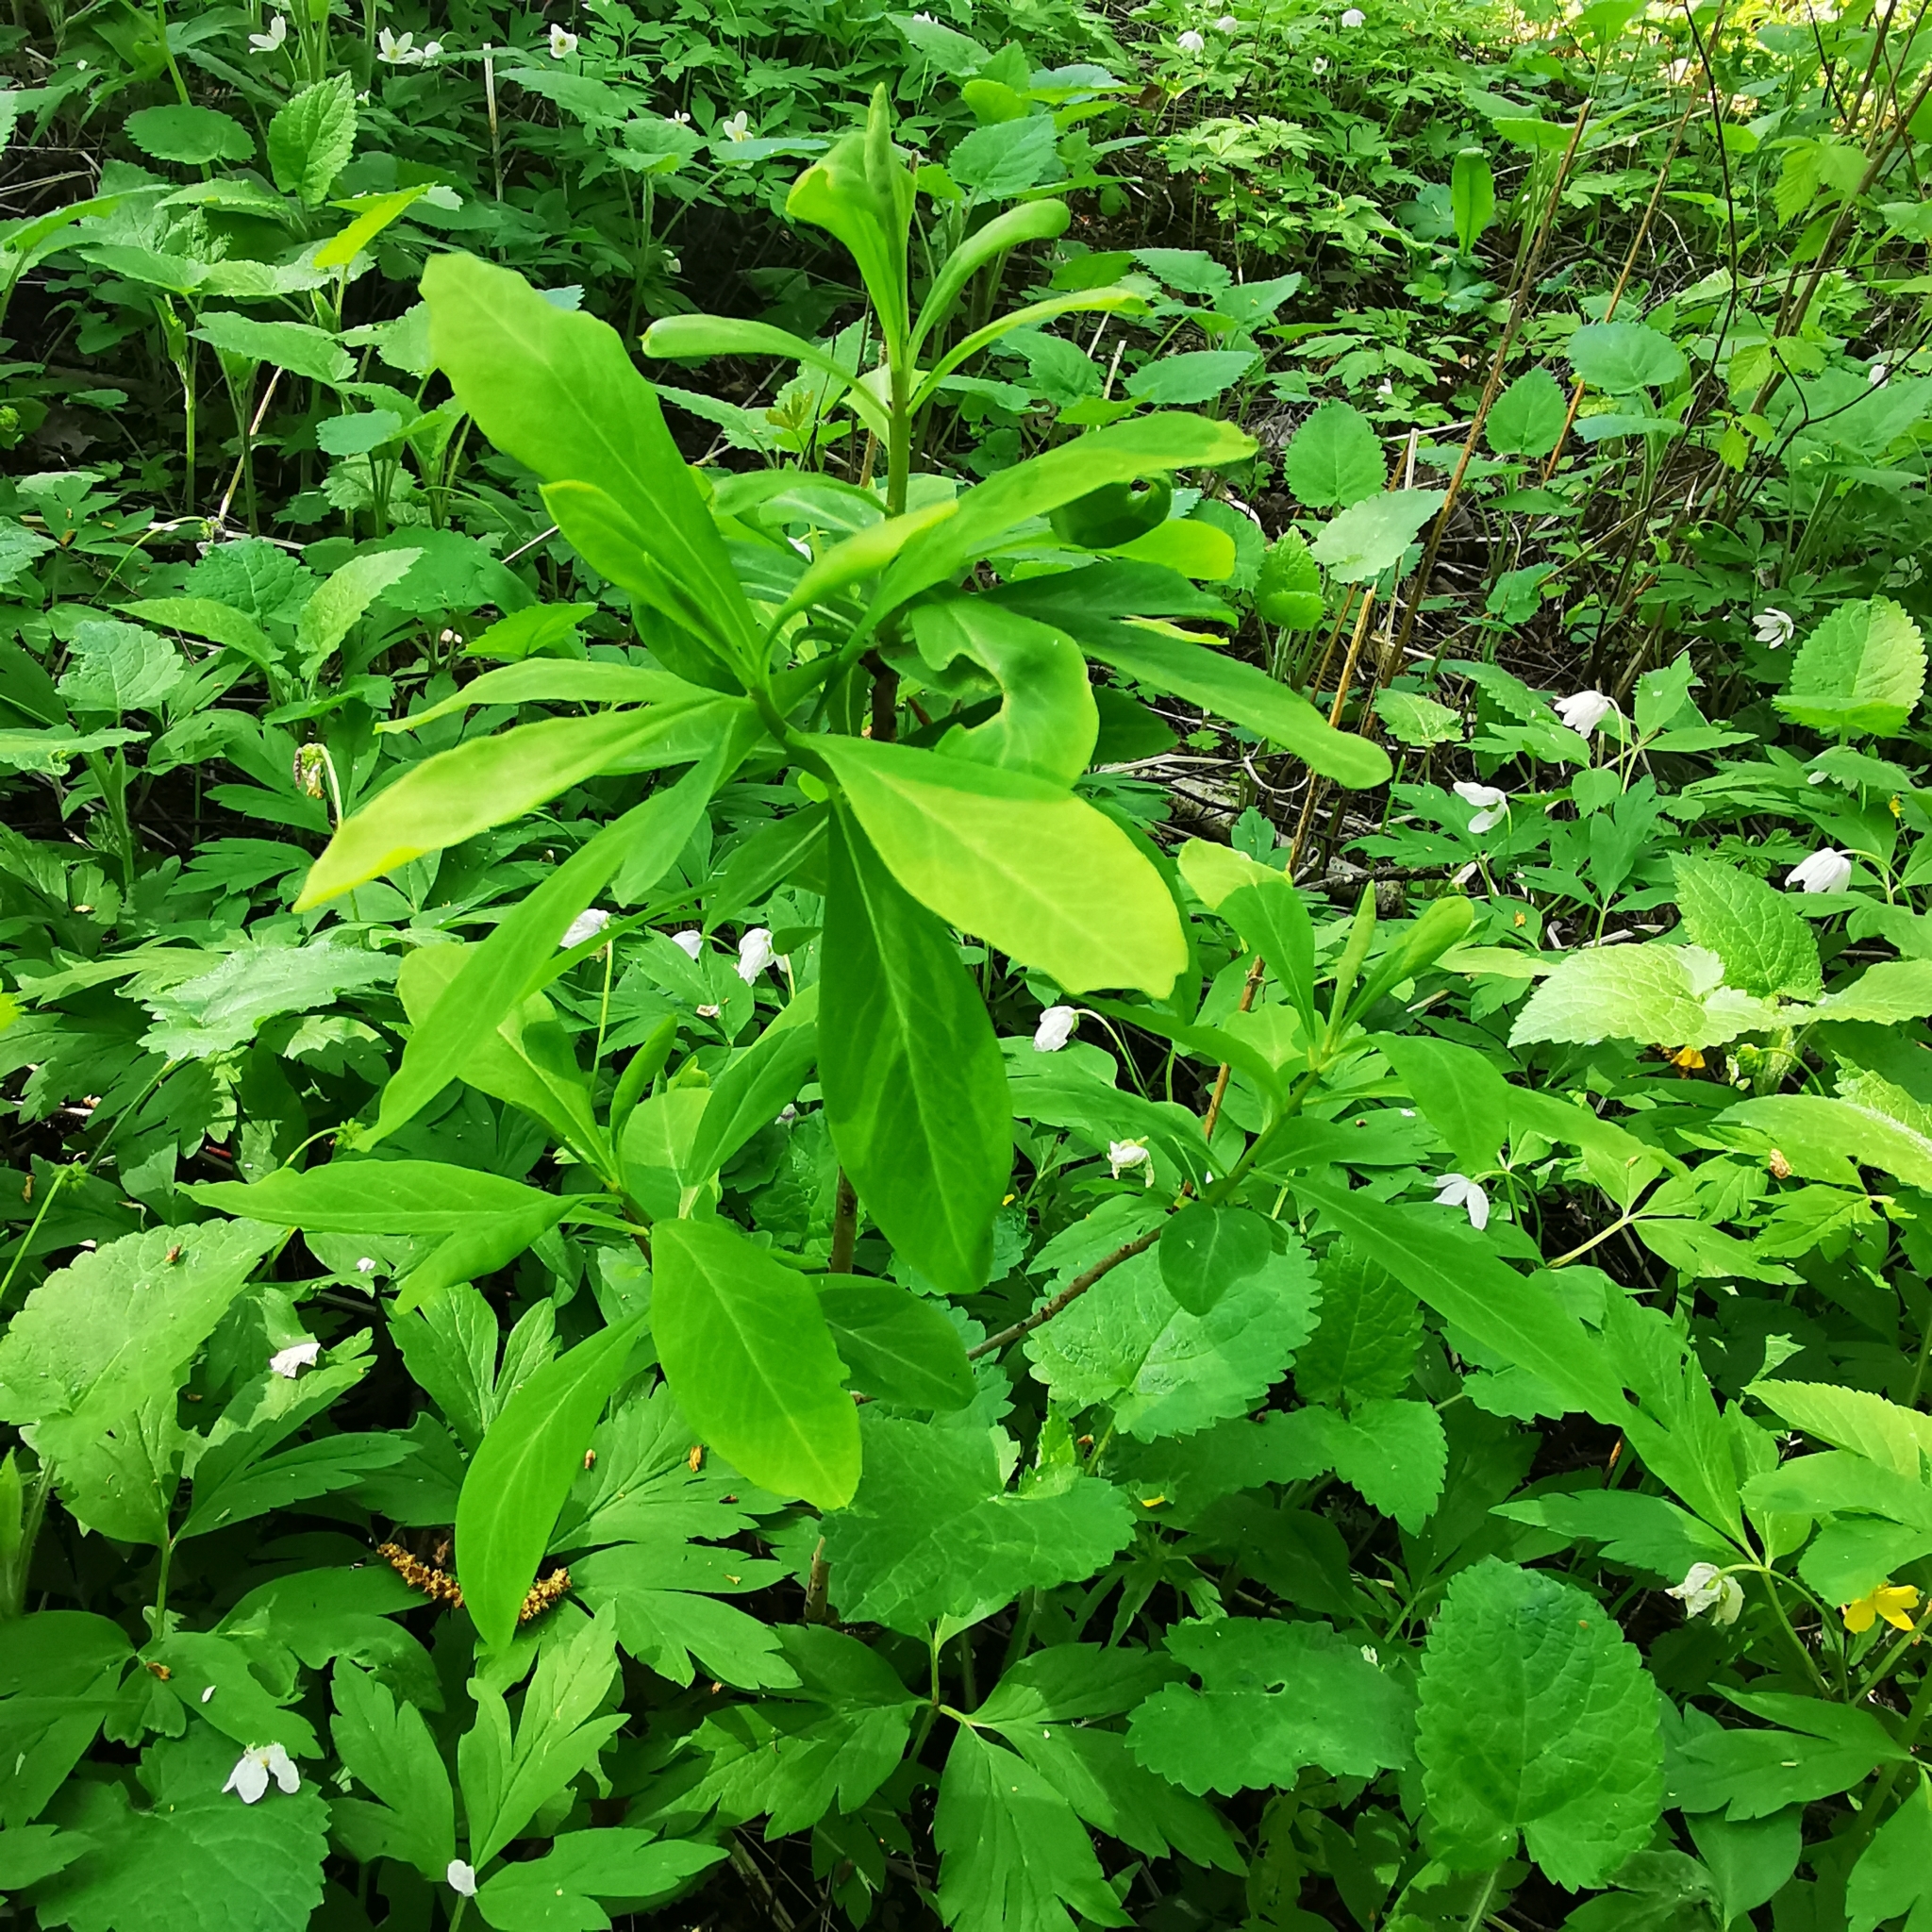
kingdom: Plantae
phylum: Tracheophyta
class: Magnoliopsida
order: Malvales
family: Thymelaeaceae
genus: Daphne
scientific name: Daphne mezereum
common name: Mezereon
